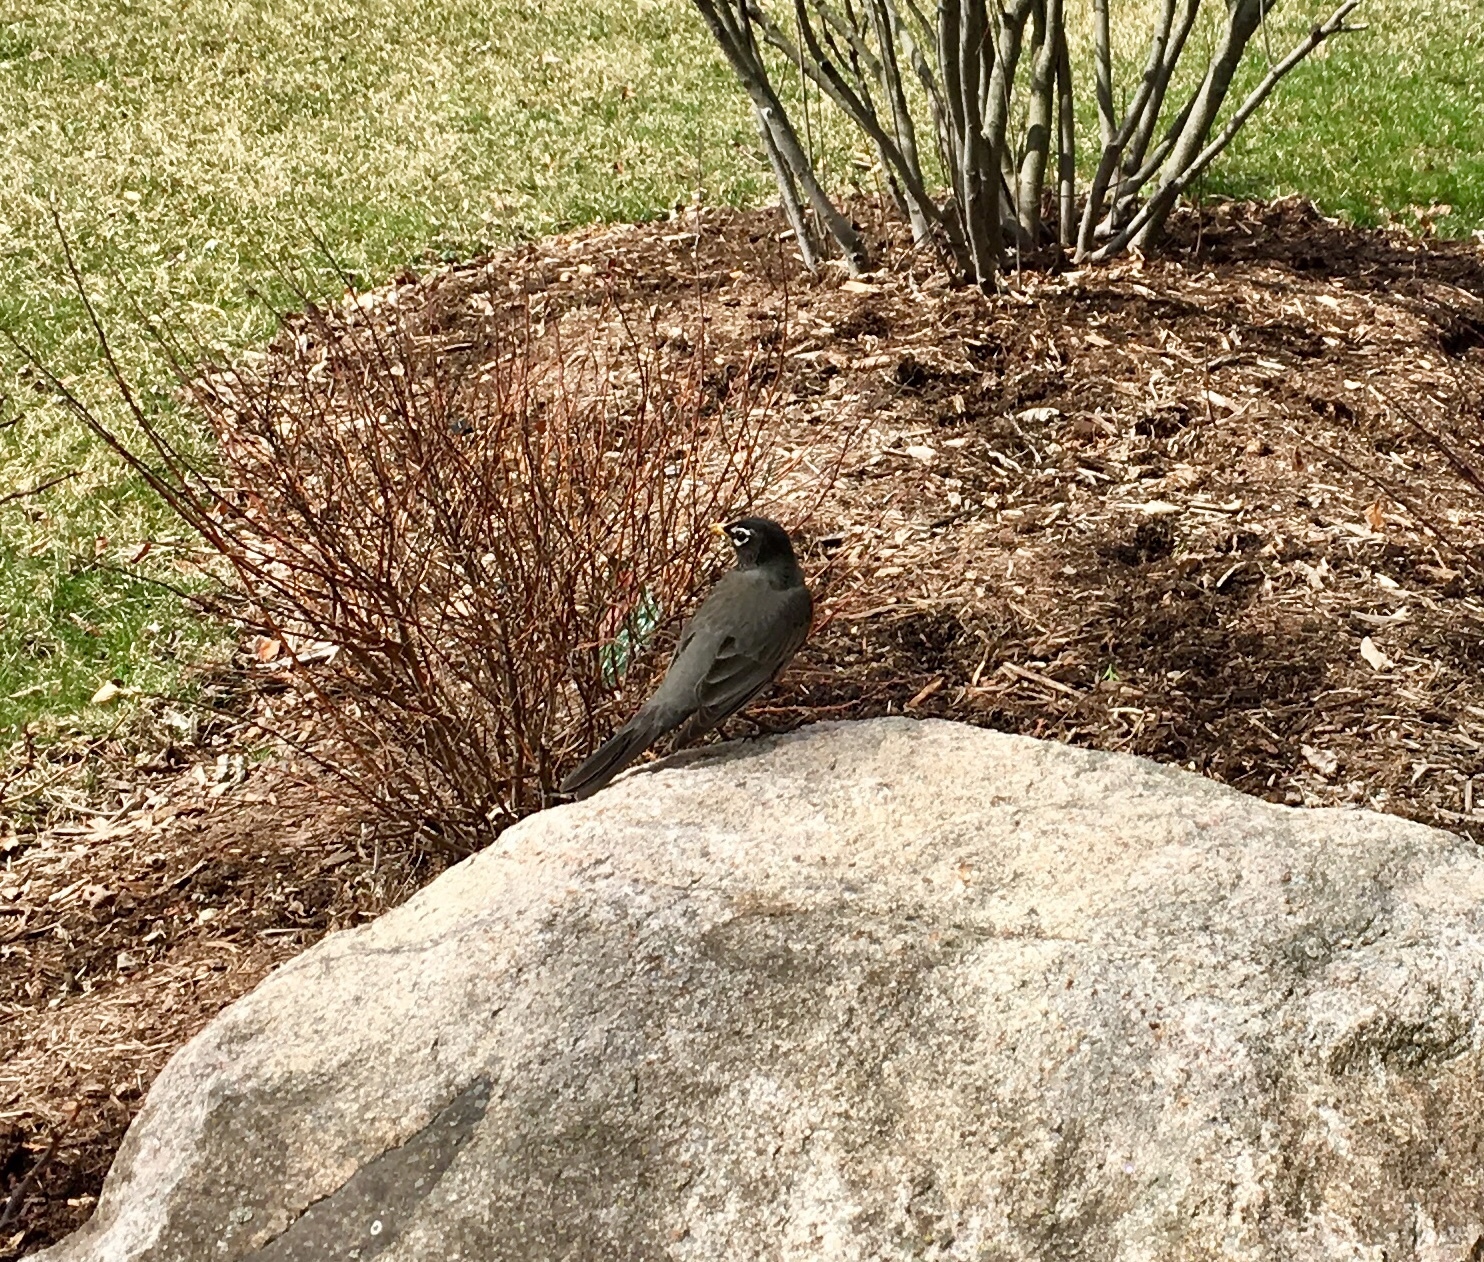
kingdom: Animalia
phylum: Chordata
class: Aves
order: Passeriformes
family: Turdidae
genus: Turdus
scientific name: Turdus migratorius
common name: American robin
